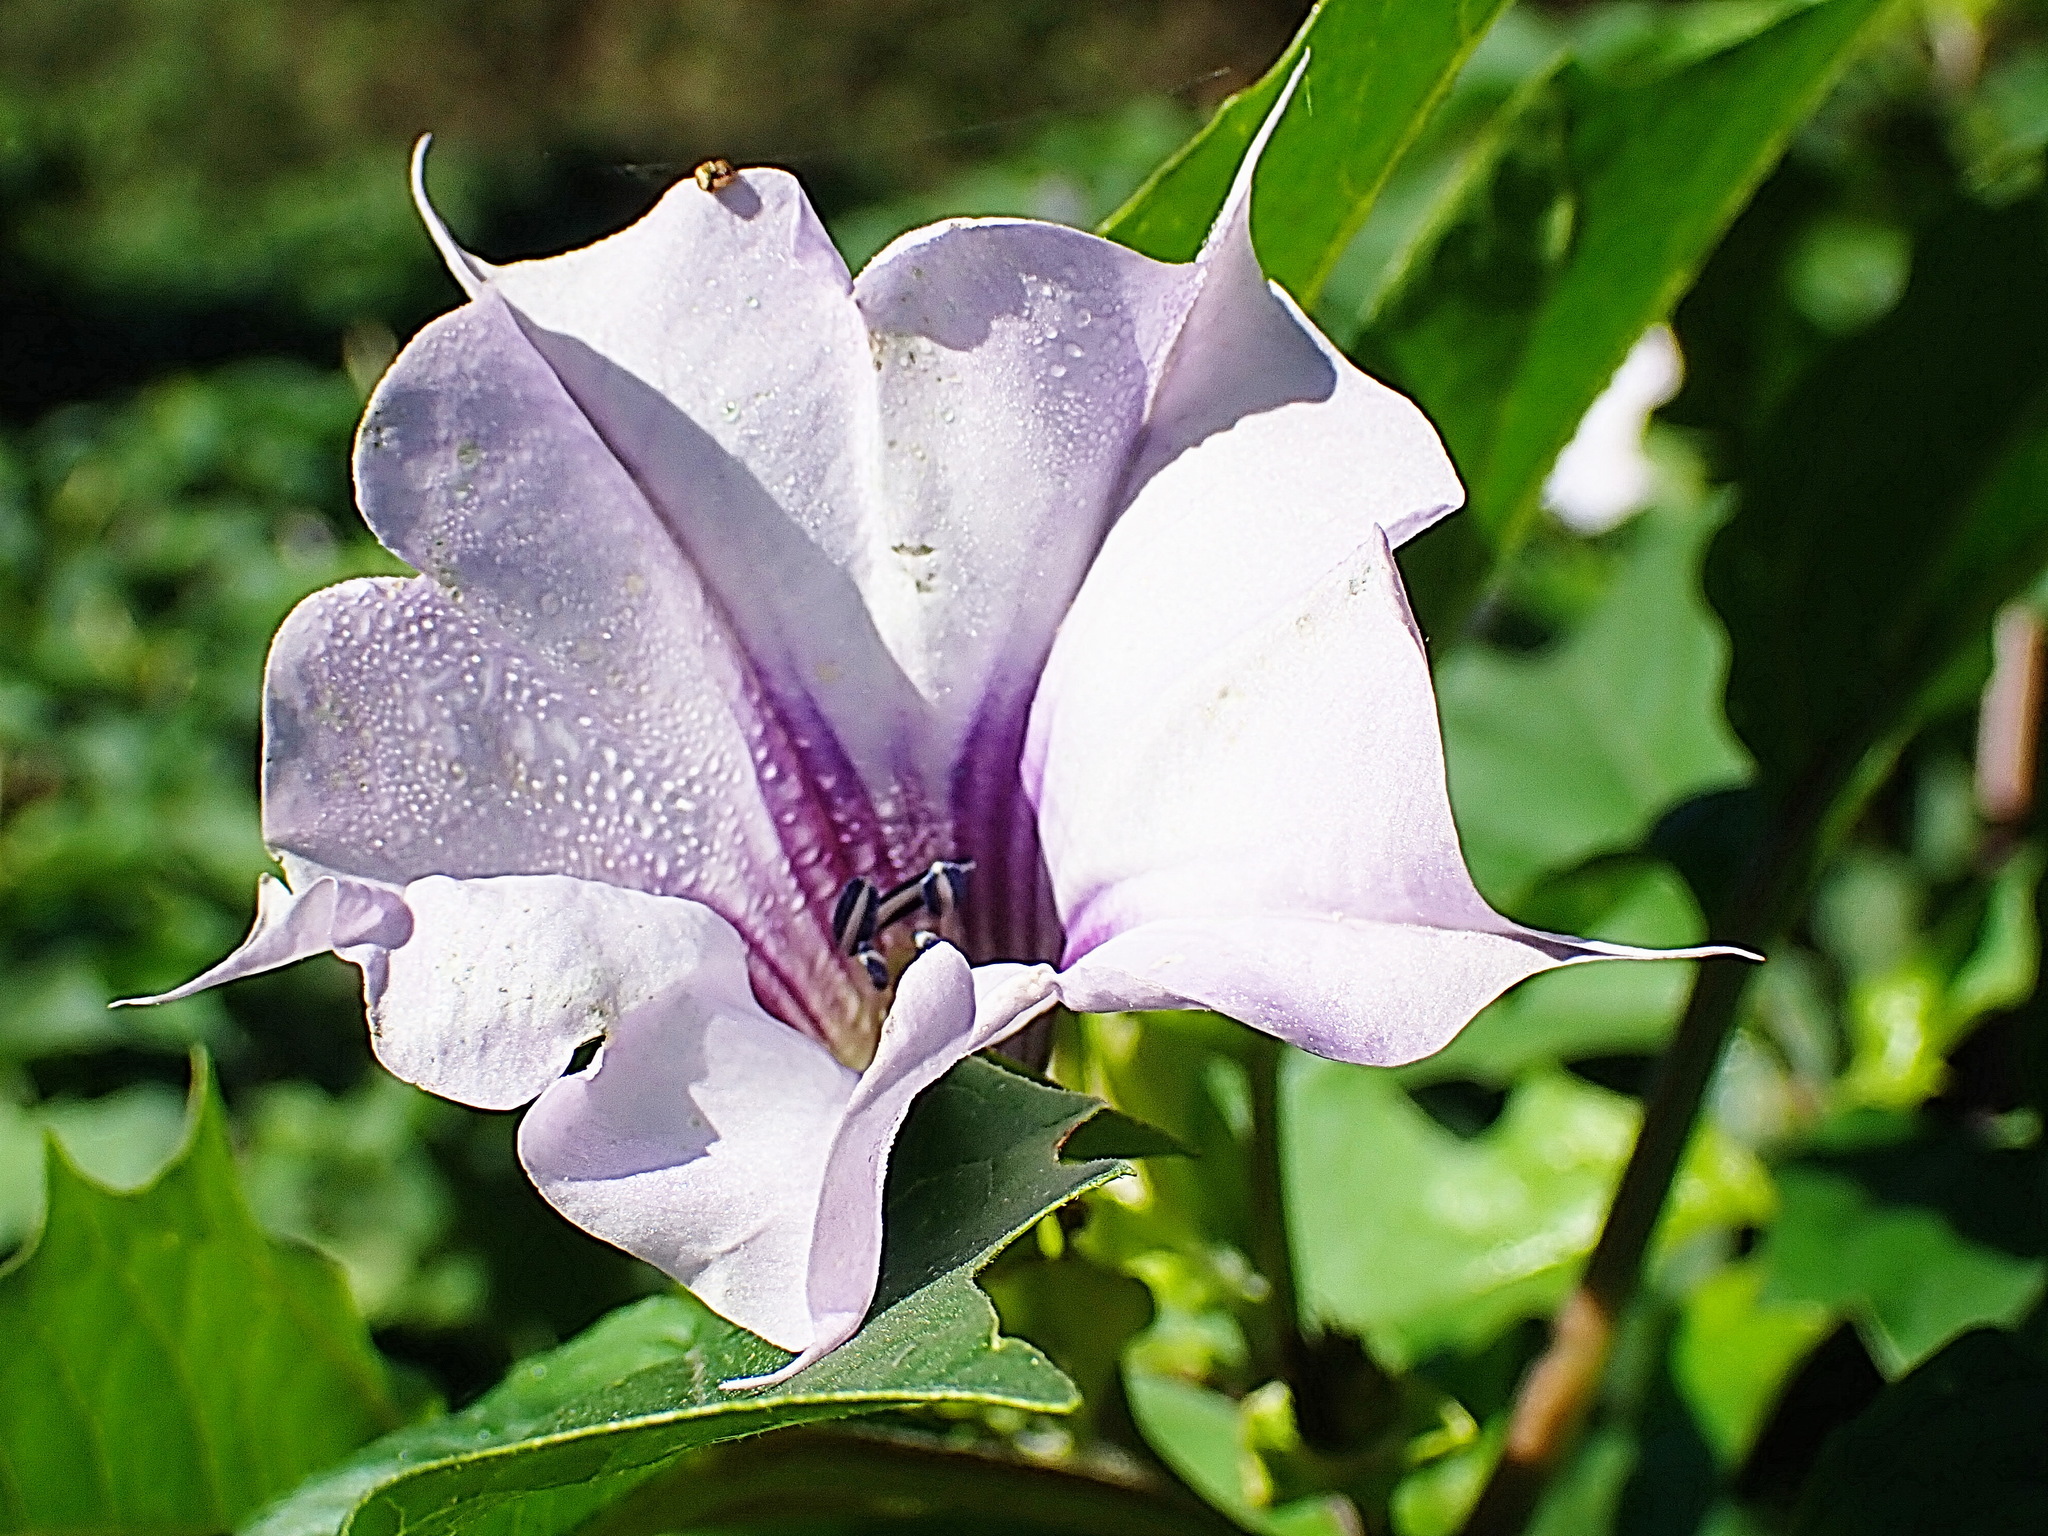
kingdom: Plantae
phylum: Tracheophyta
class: Magnoliopsida
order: Solanales
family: Solanaceae
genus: Datura
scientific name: Datura stramonium
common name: Thorn-apple
